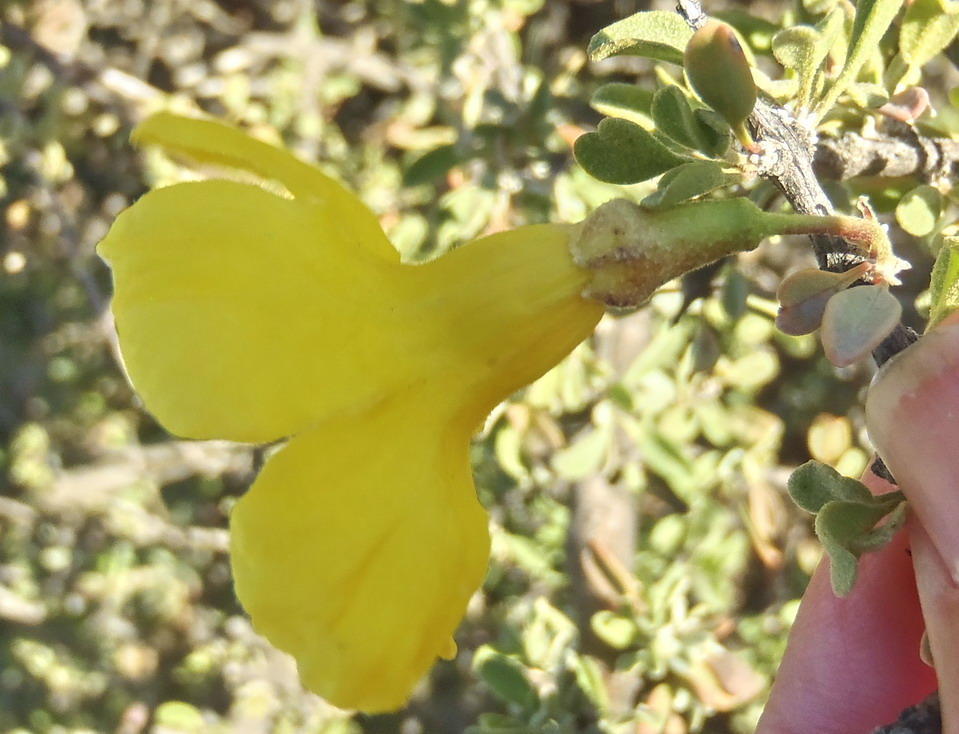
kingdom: Plantae
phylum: Tracheophyta
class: Magnoliopsida
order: Lamiales
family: Bignoniaceae
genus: Rhigozum
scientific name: Rhigozum obovatum
